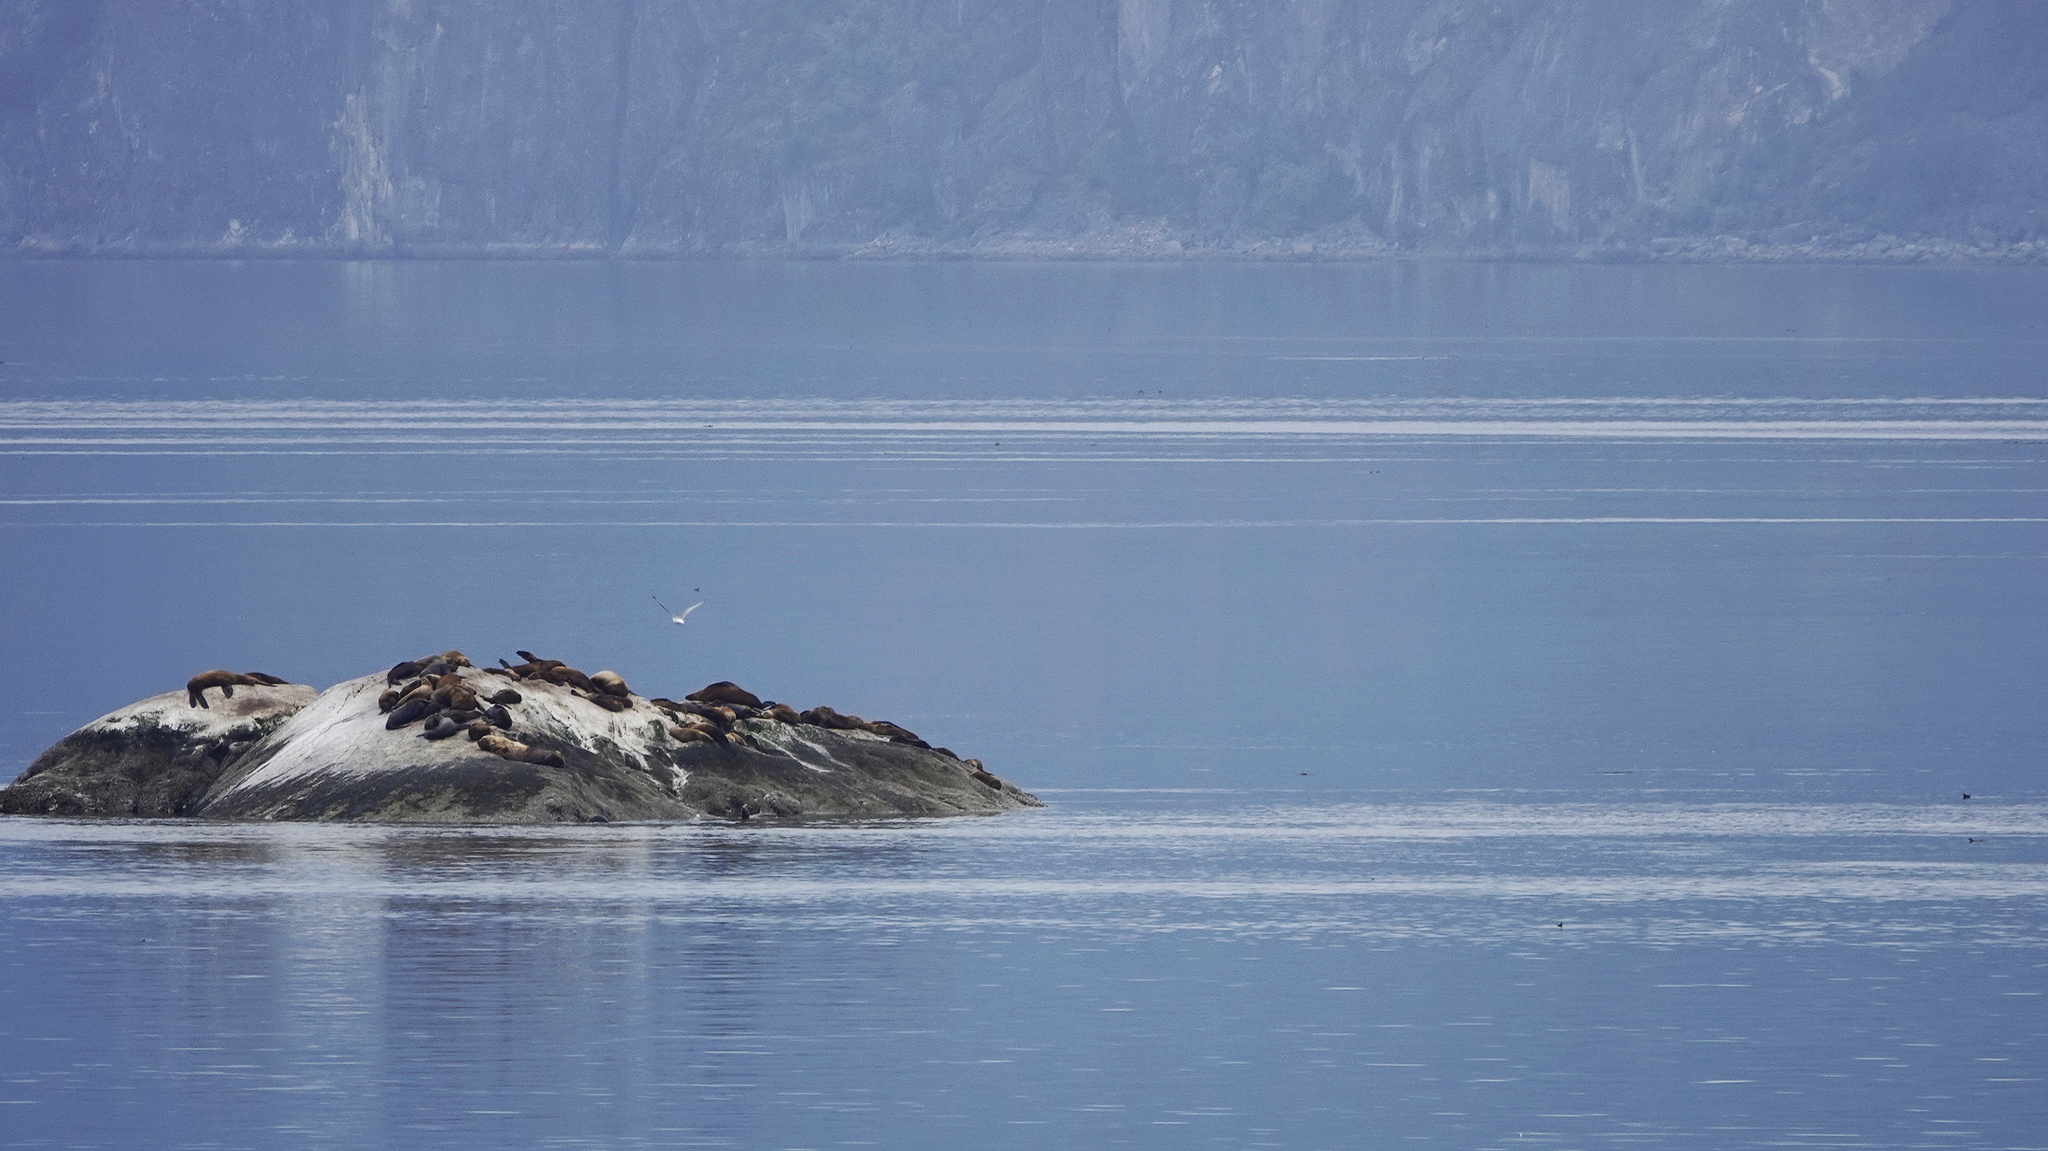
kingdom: Animalia
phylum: Chordata
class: Mammalia
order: Carnivora
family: Otariidae
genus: Eumetopias
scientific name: Eumetopias jubatus
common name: Steller sea lion
